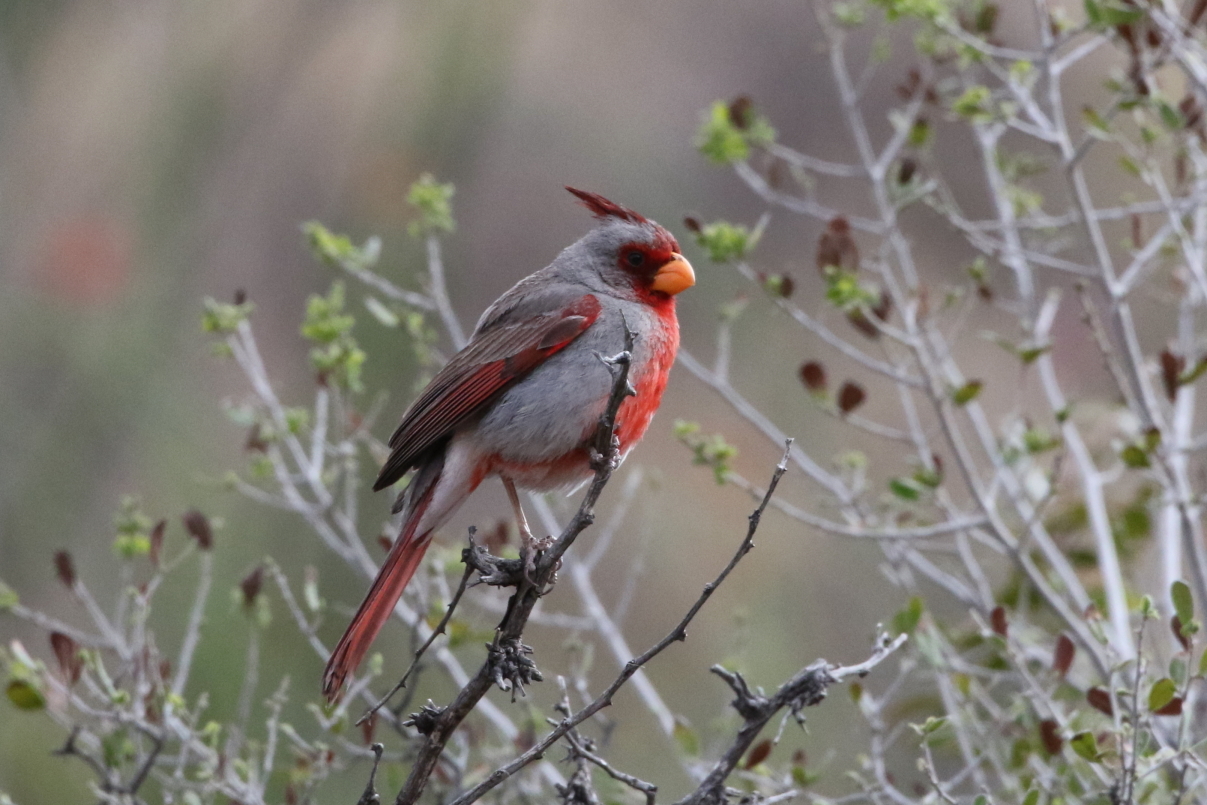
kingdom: Animalia
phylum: Chordata
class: Aves
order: Passeriformes
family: Cardinalidae
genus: Cardinalis
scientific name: Cardinalis sinuatus
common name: Pyrrhuloxia
